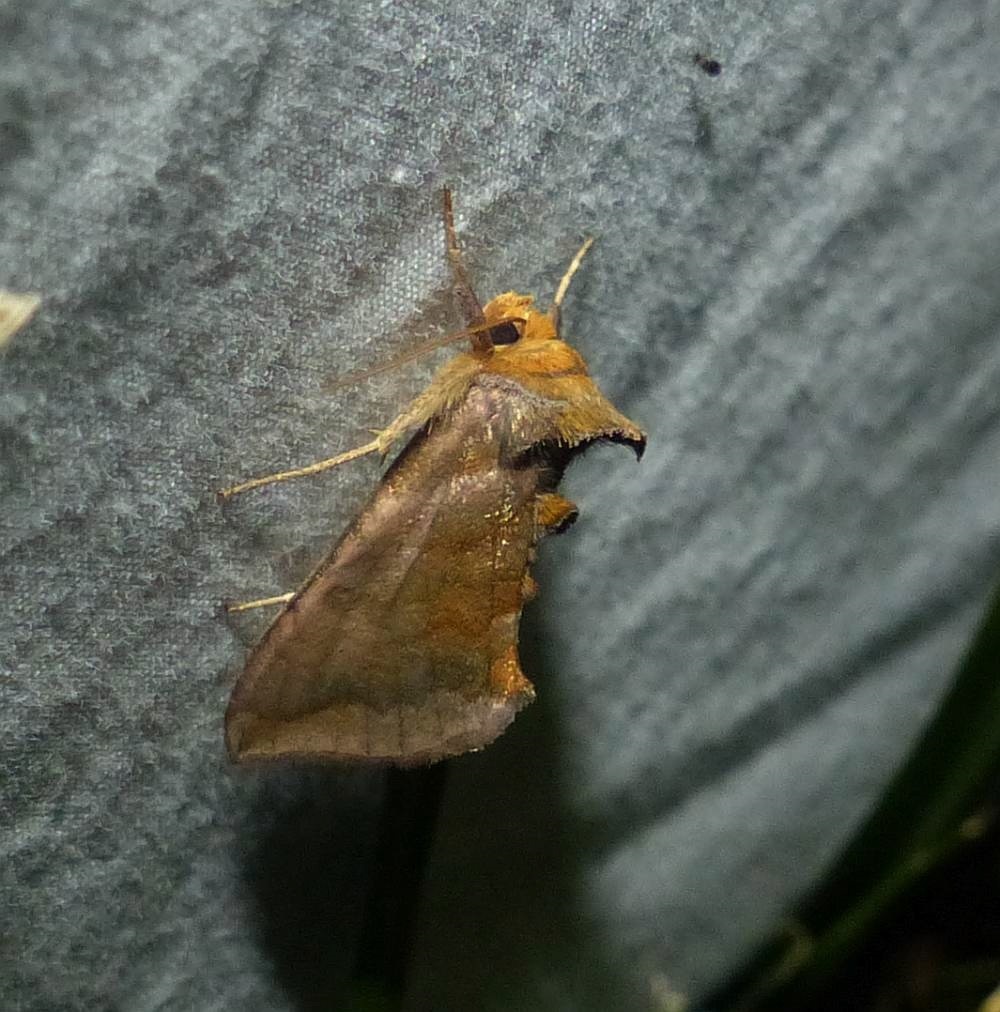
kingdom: Animalia
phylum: Arthropoda
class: Insecta
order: Lepidoptera
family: Noctuidae
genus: Allagrapha
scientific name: Allagrapha aerea
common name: Unspotted looper moth
